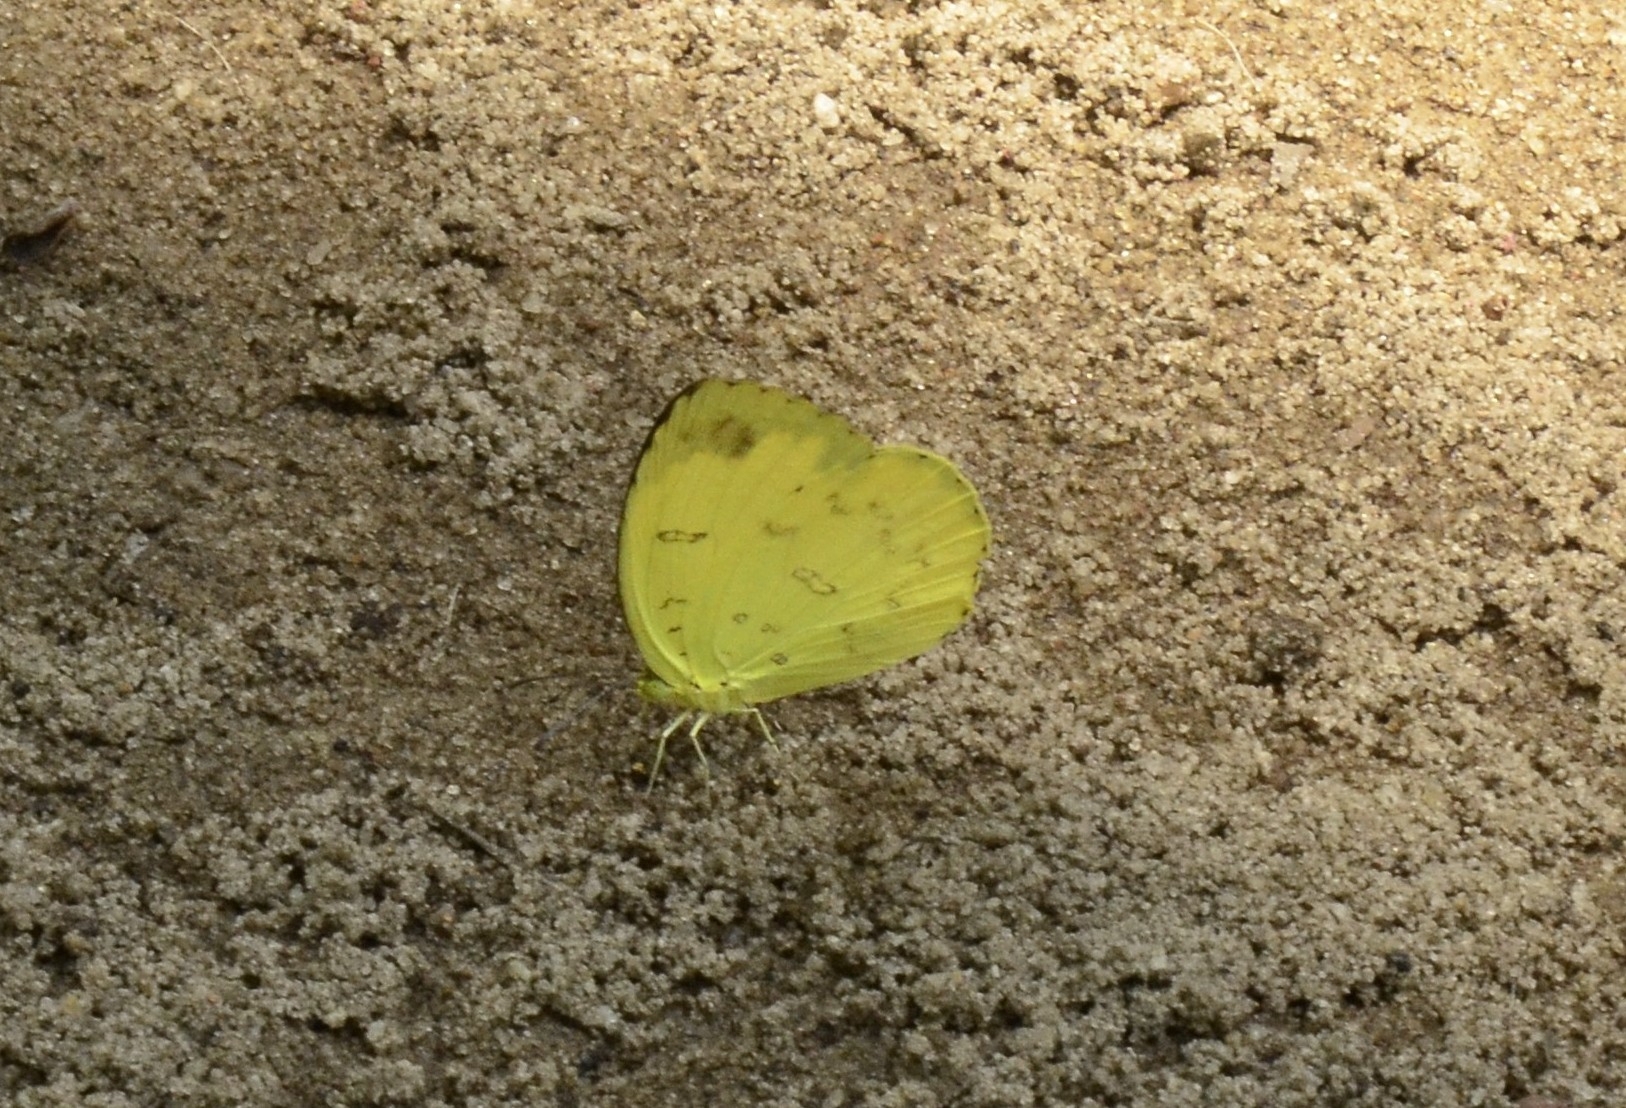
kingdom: Animalia
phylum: Arthropoda
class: Insecta
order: Lepidoptera
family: Pieridae
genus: Eurema
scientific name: Eurema blanda
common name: Three-spot grass yellow
